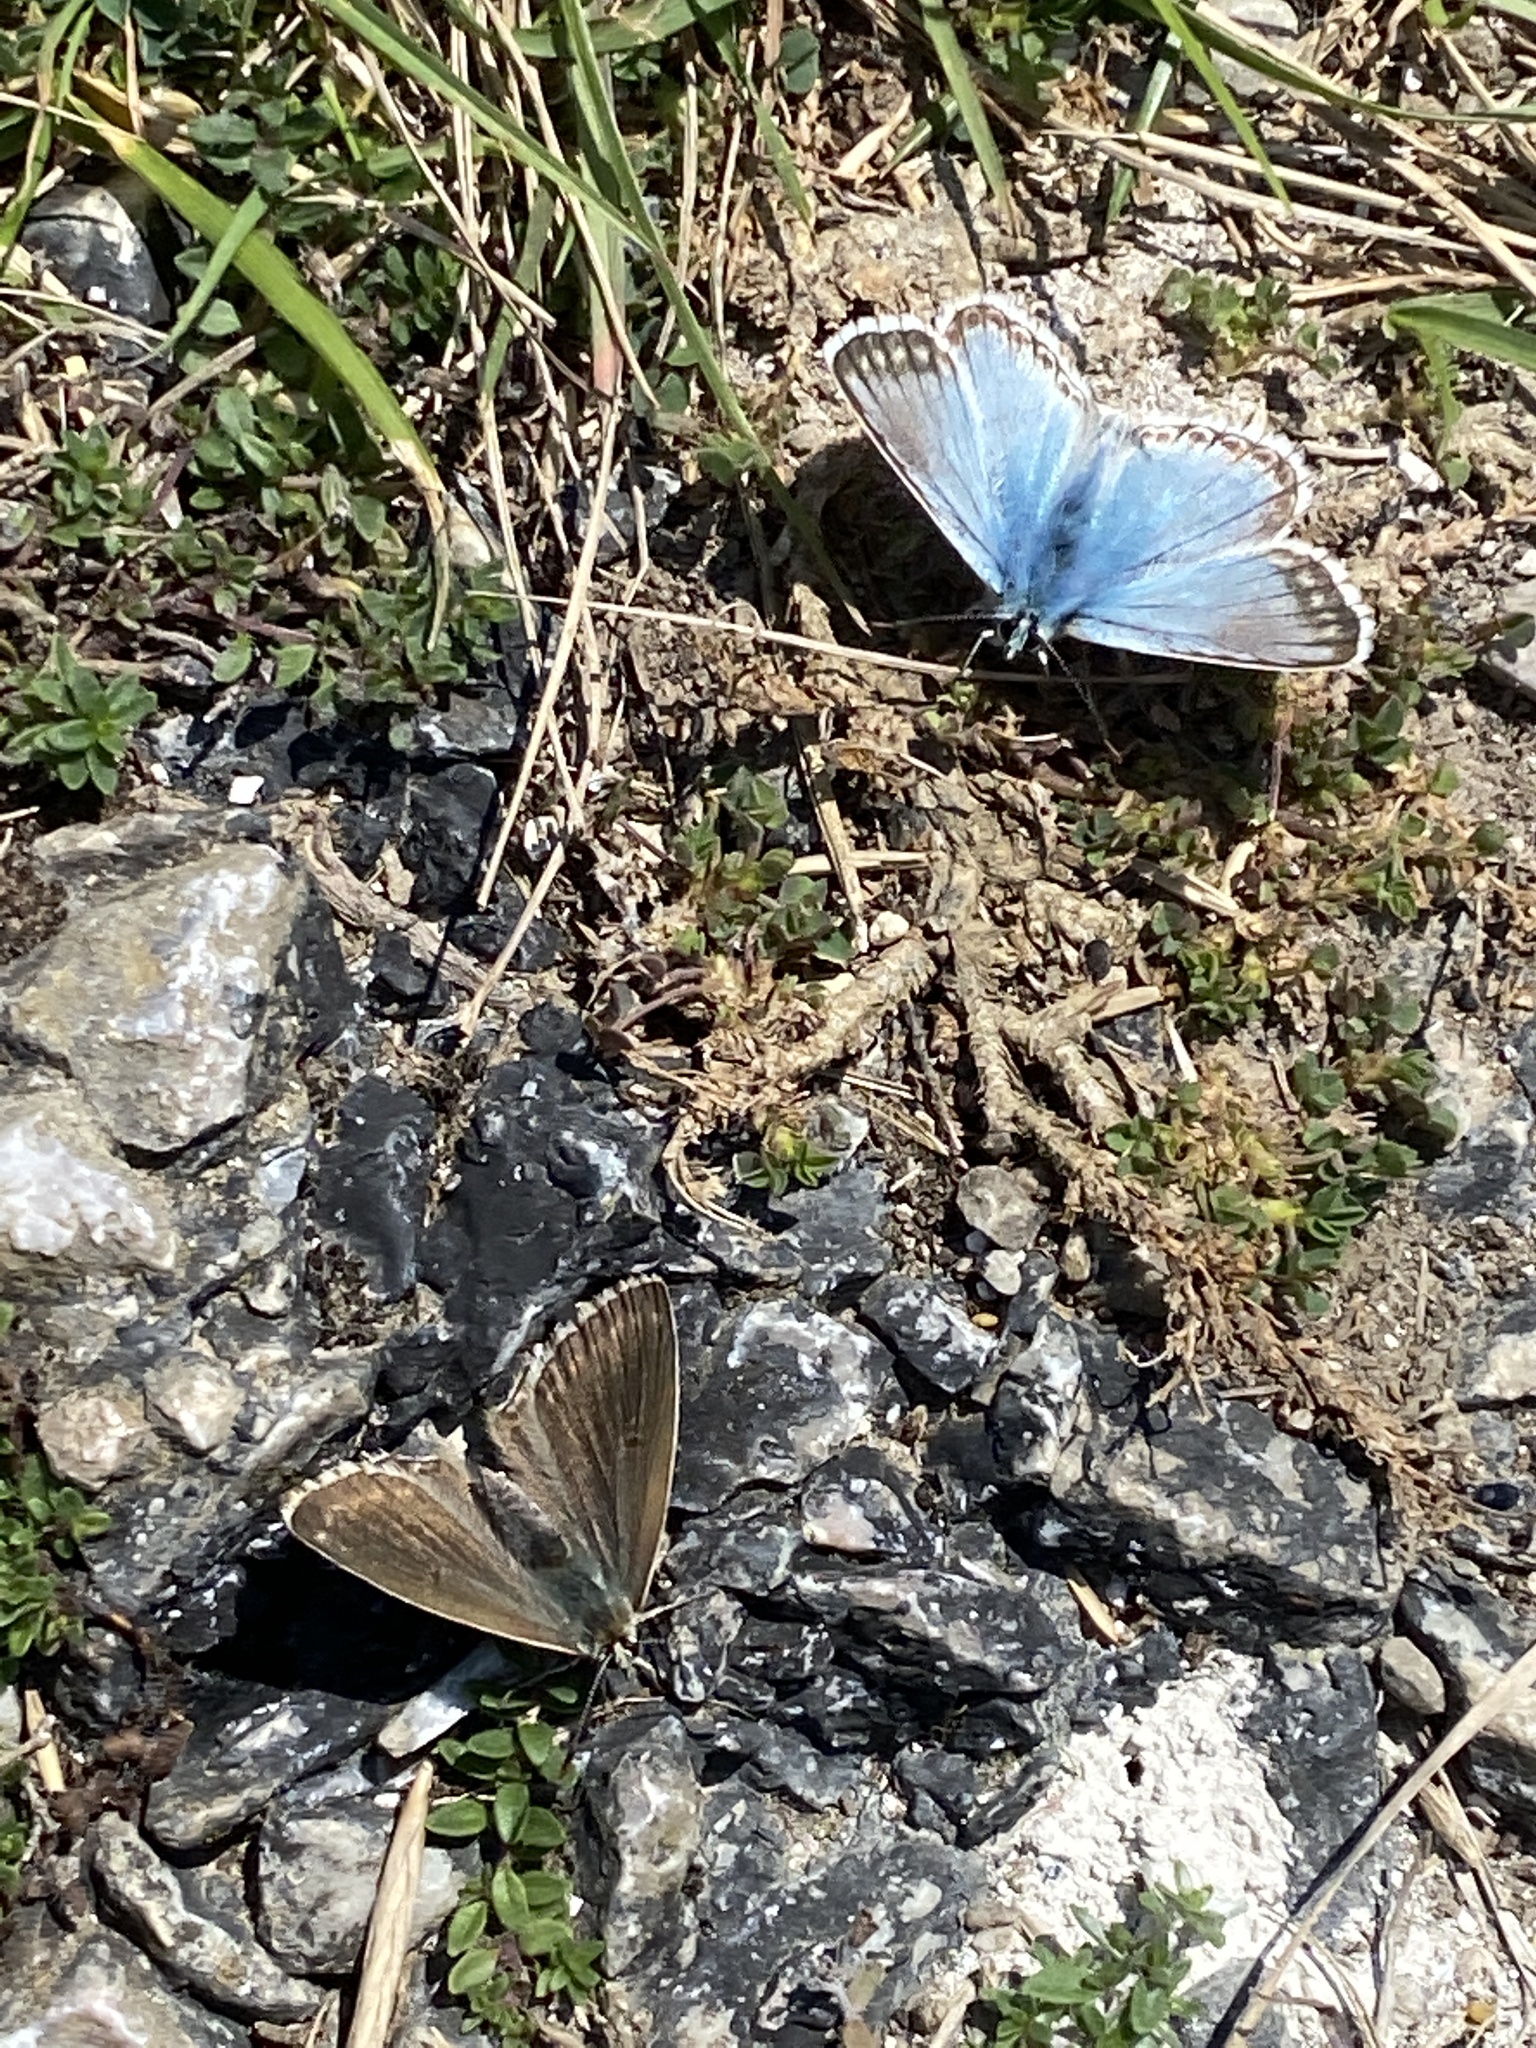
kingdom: Animalia
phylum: Arthropoda
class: Insecta
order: Lepidoptera
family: Lycaenidae
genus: Lysandra
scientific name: Lysandra coridon
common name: Chalkhill blue
